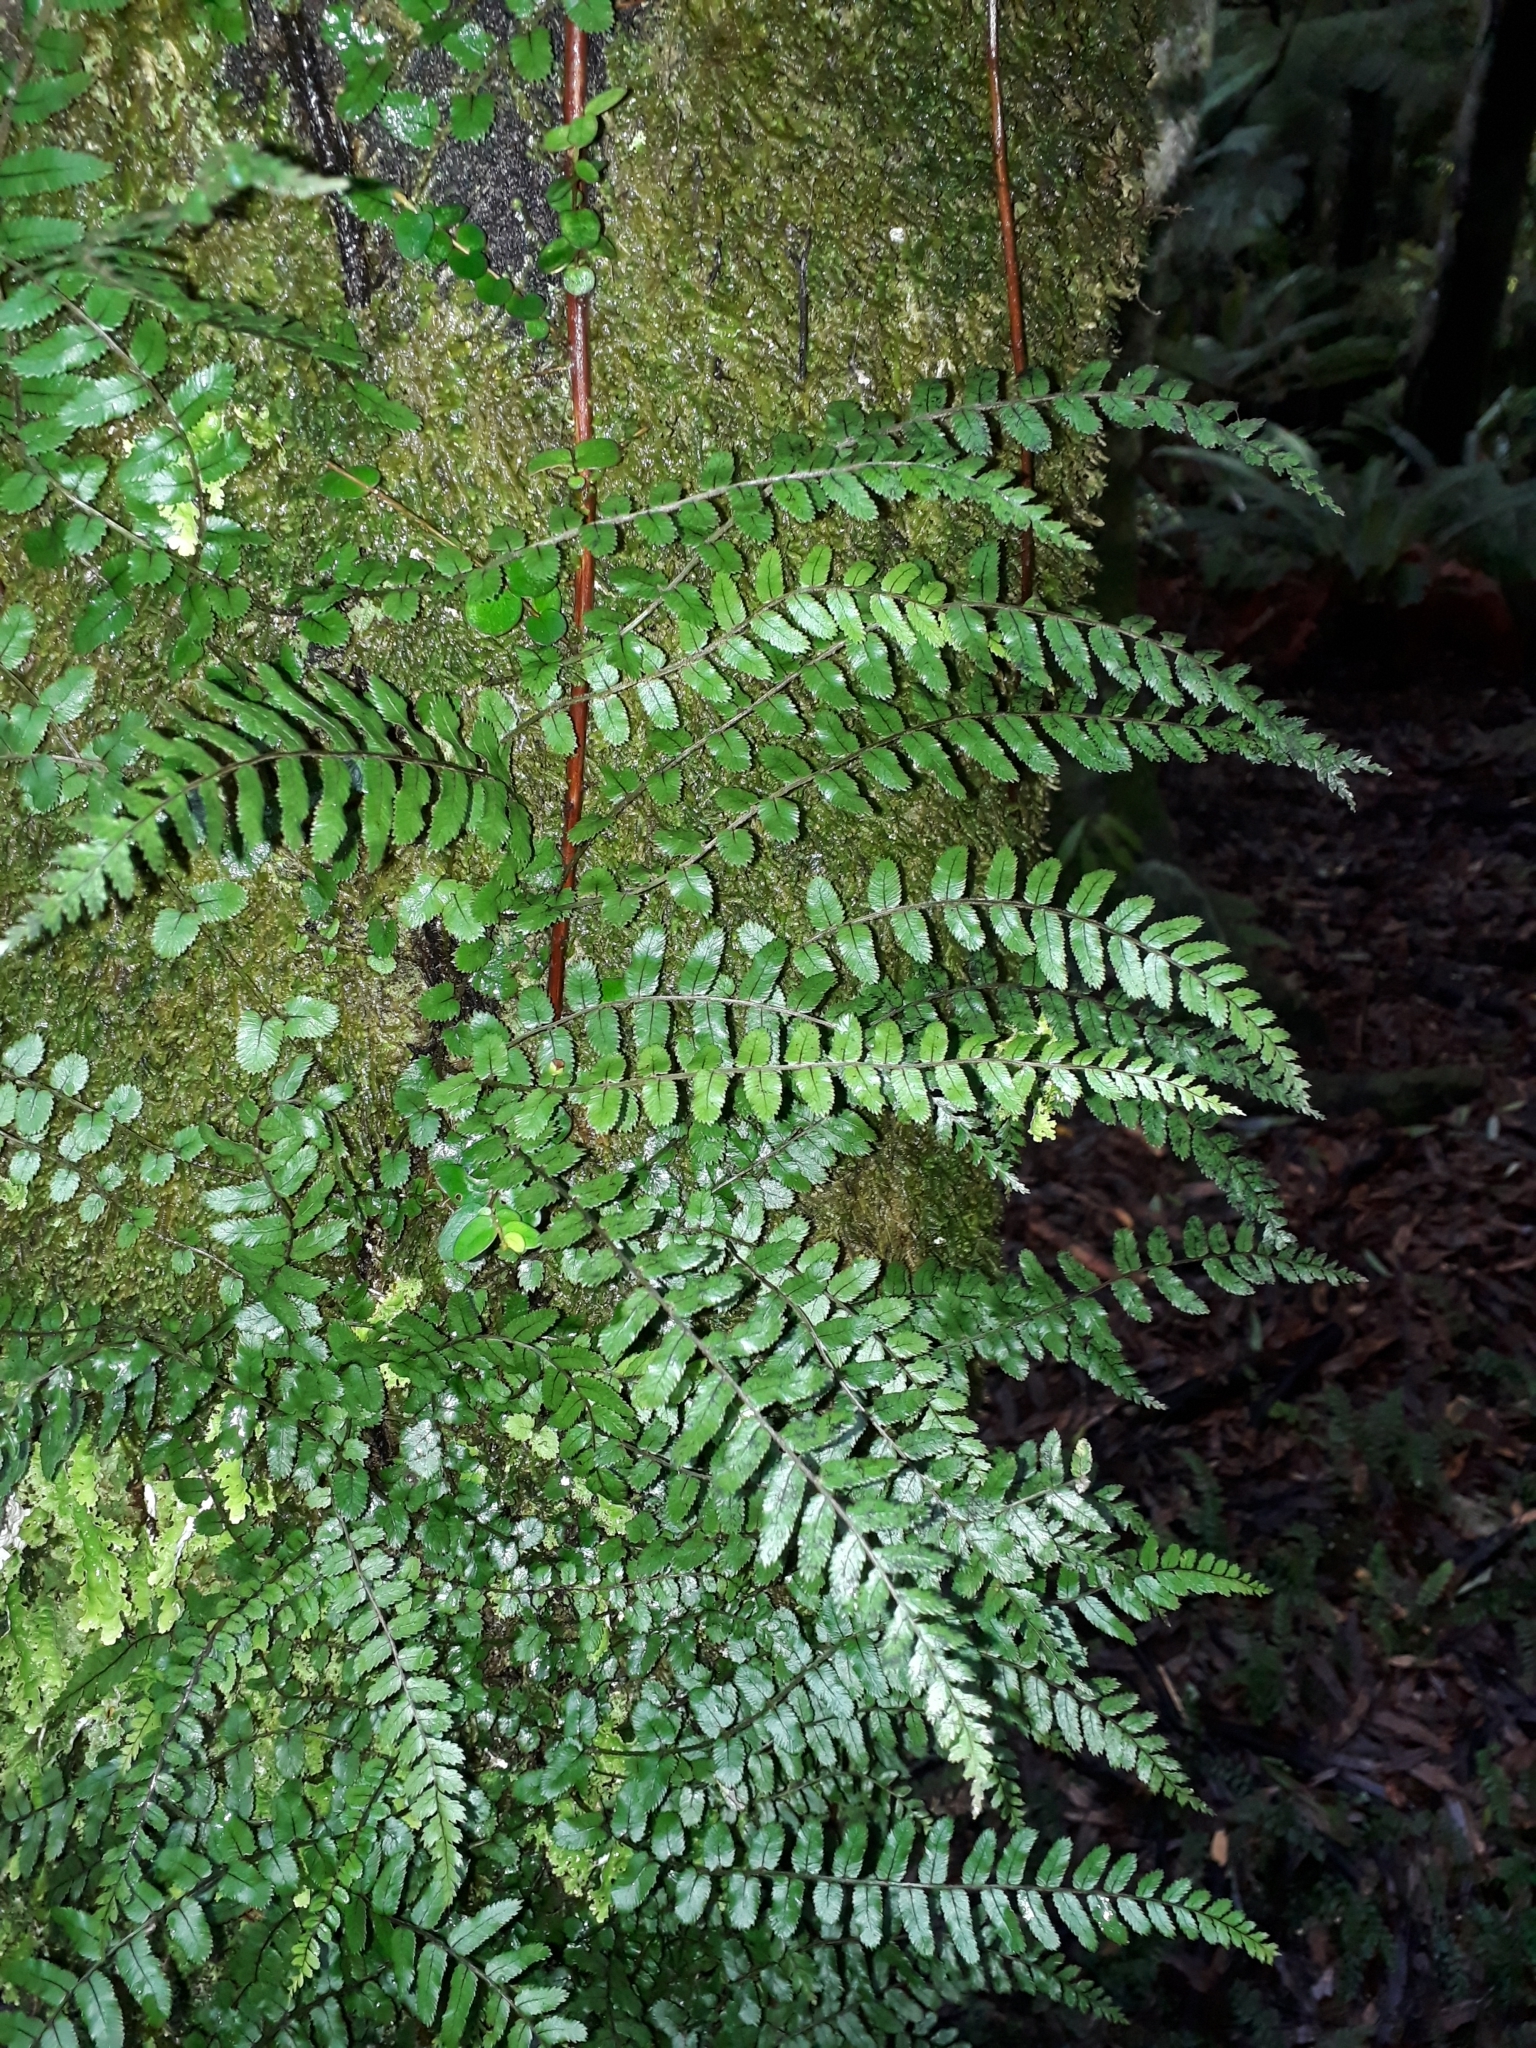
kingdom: Plantae
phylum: Tracheophyta
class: Polypodiopsida
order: Polypodiales
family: Blechnaceae
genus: Icarus
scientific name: Icarus filiformis
